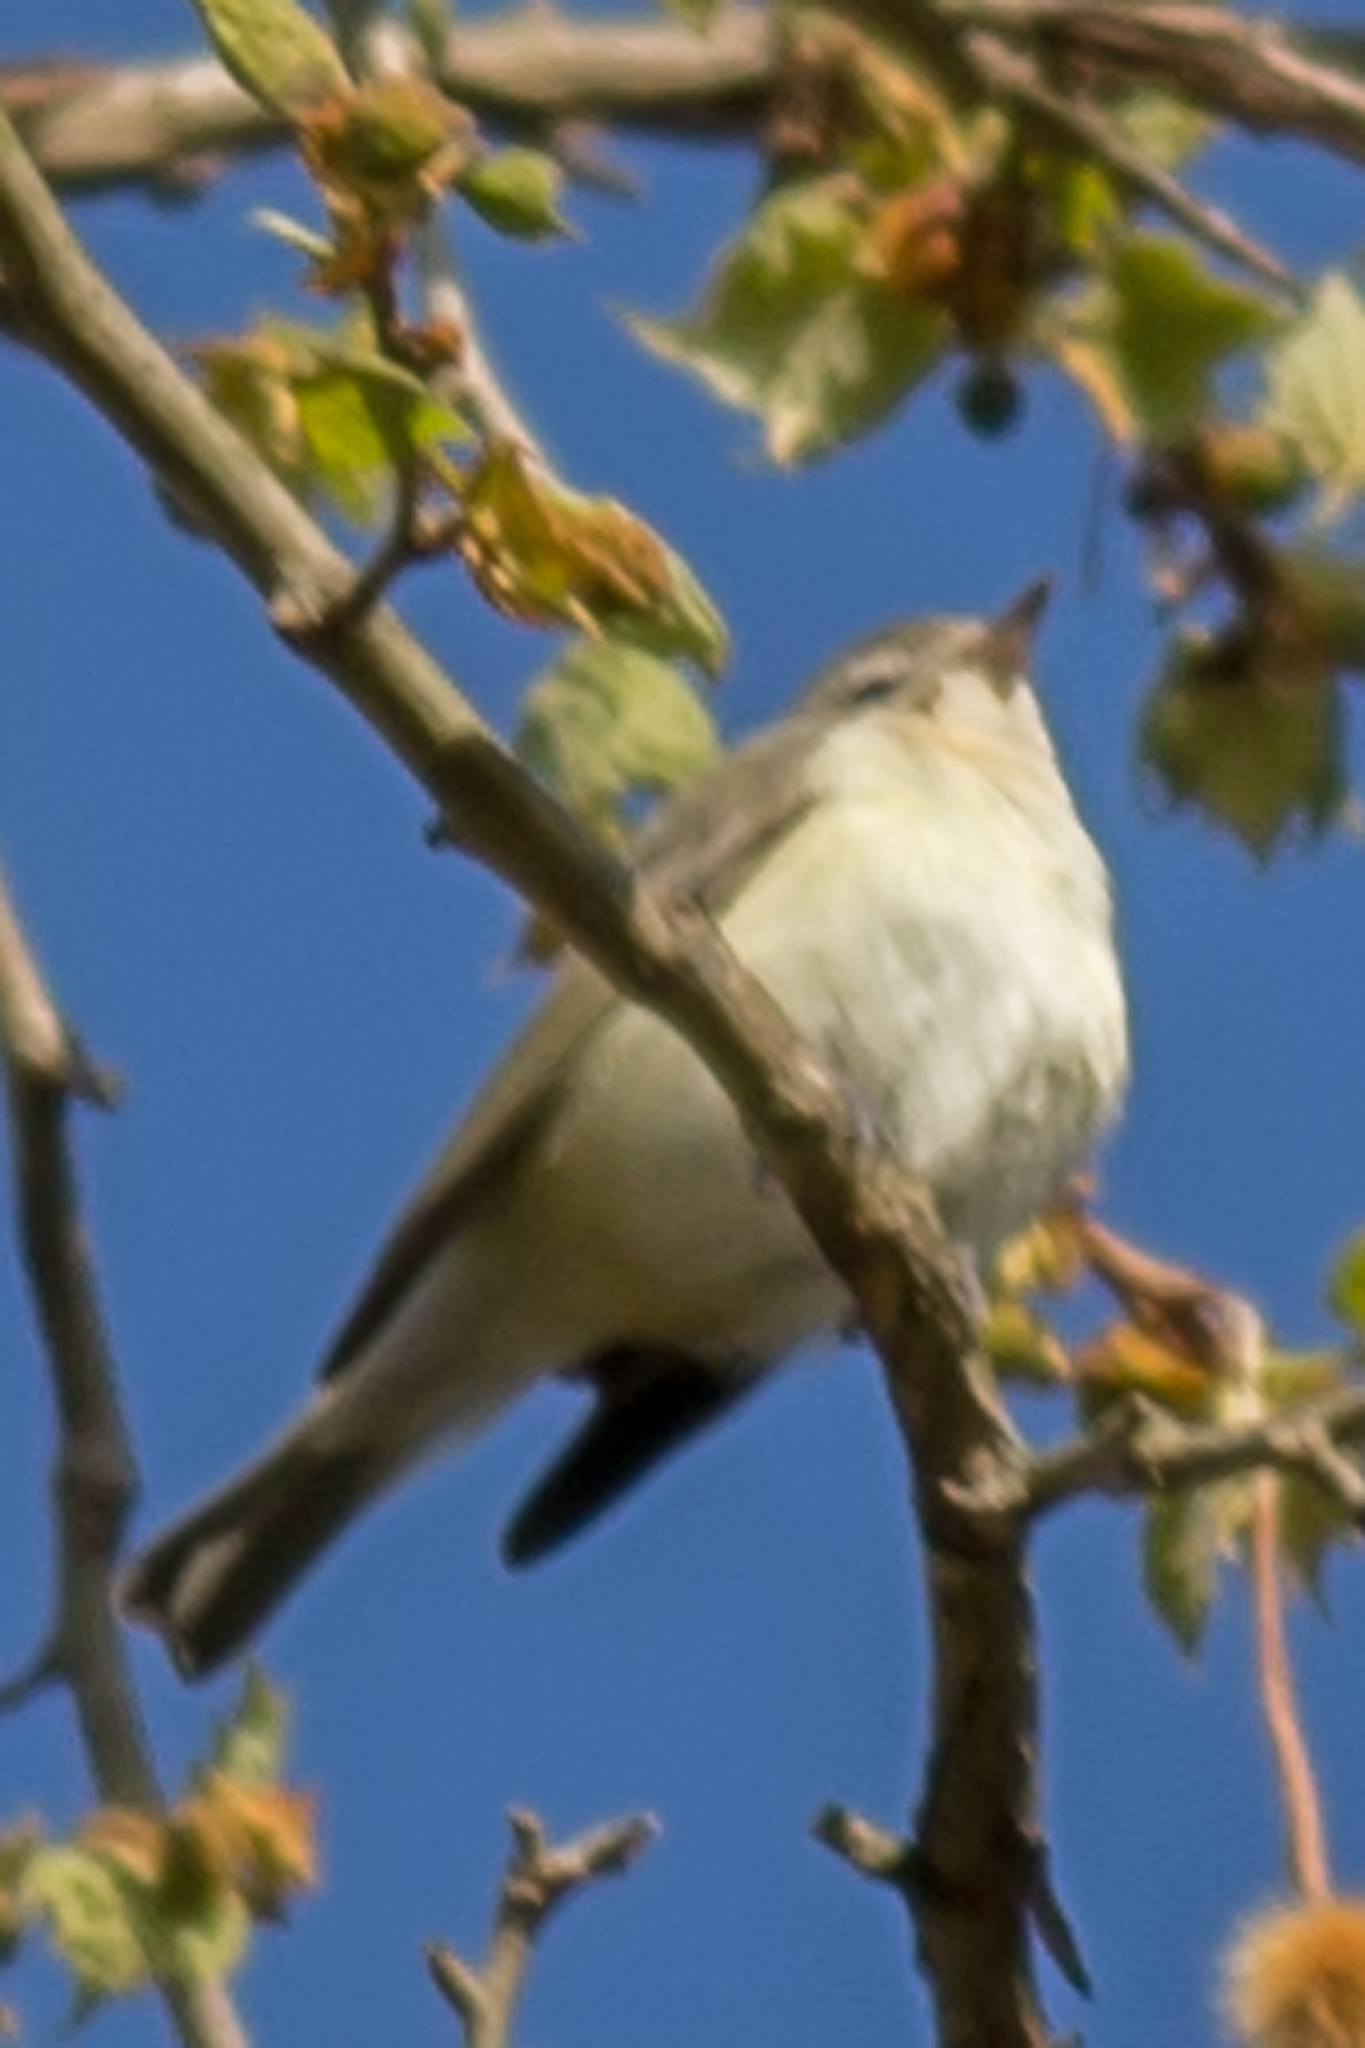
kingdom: Animalia
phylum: Chordata
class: Aves
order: Passeriformes
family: Vireonidae
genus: Vireo
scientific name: Vireo gilvus
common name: Warbling vireo
